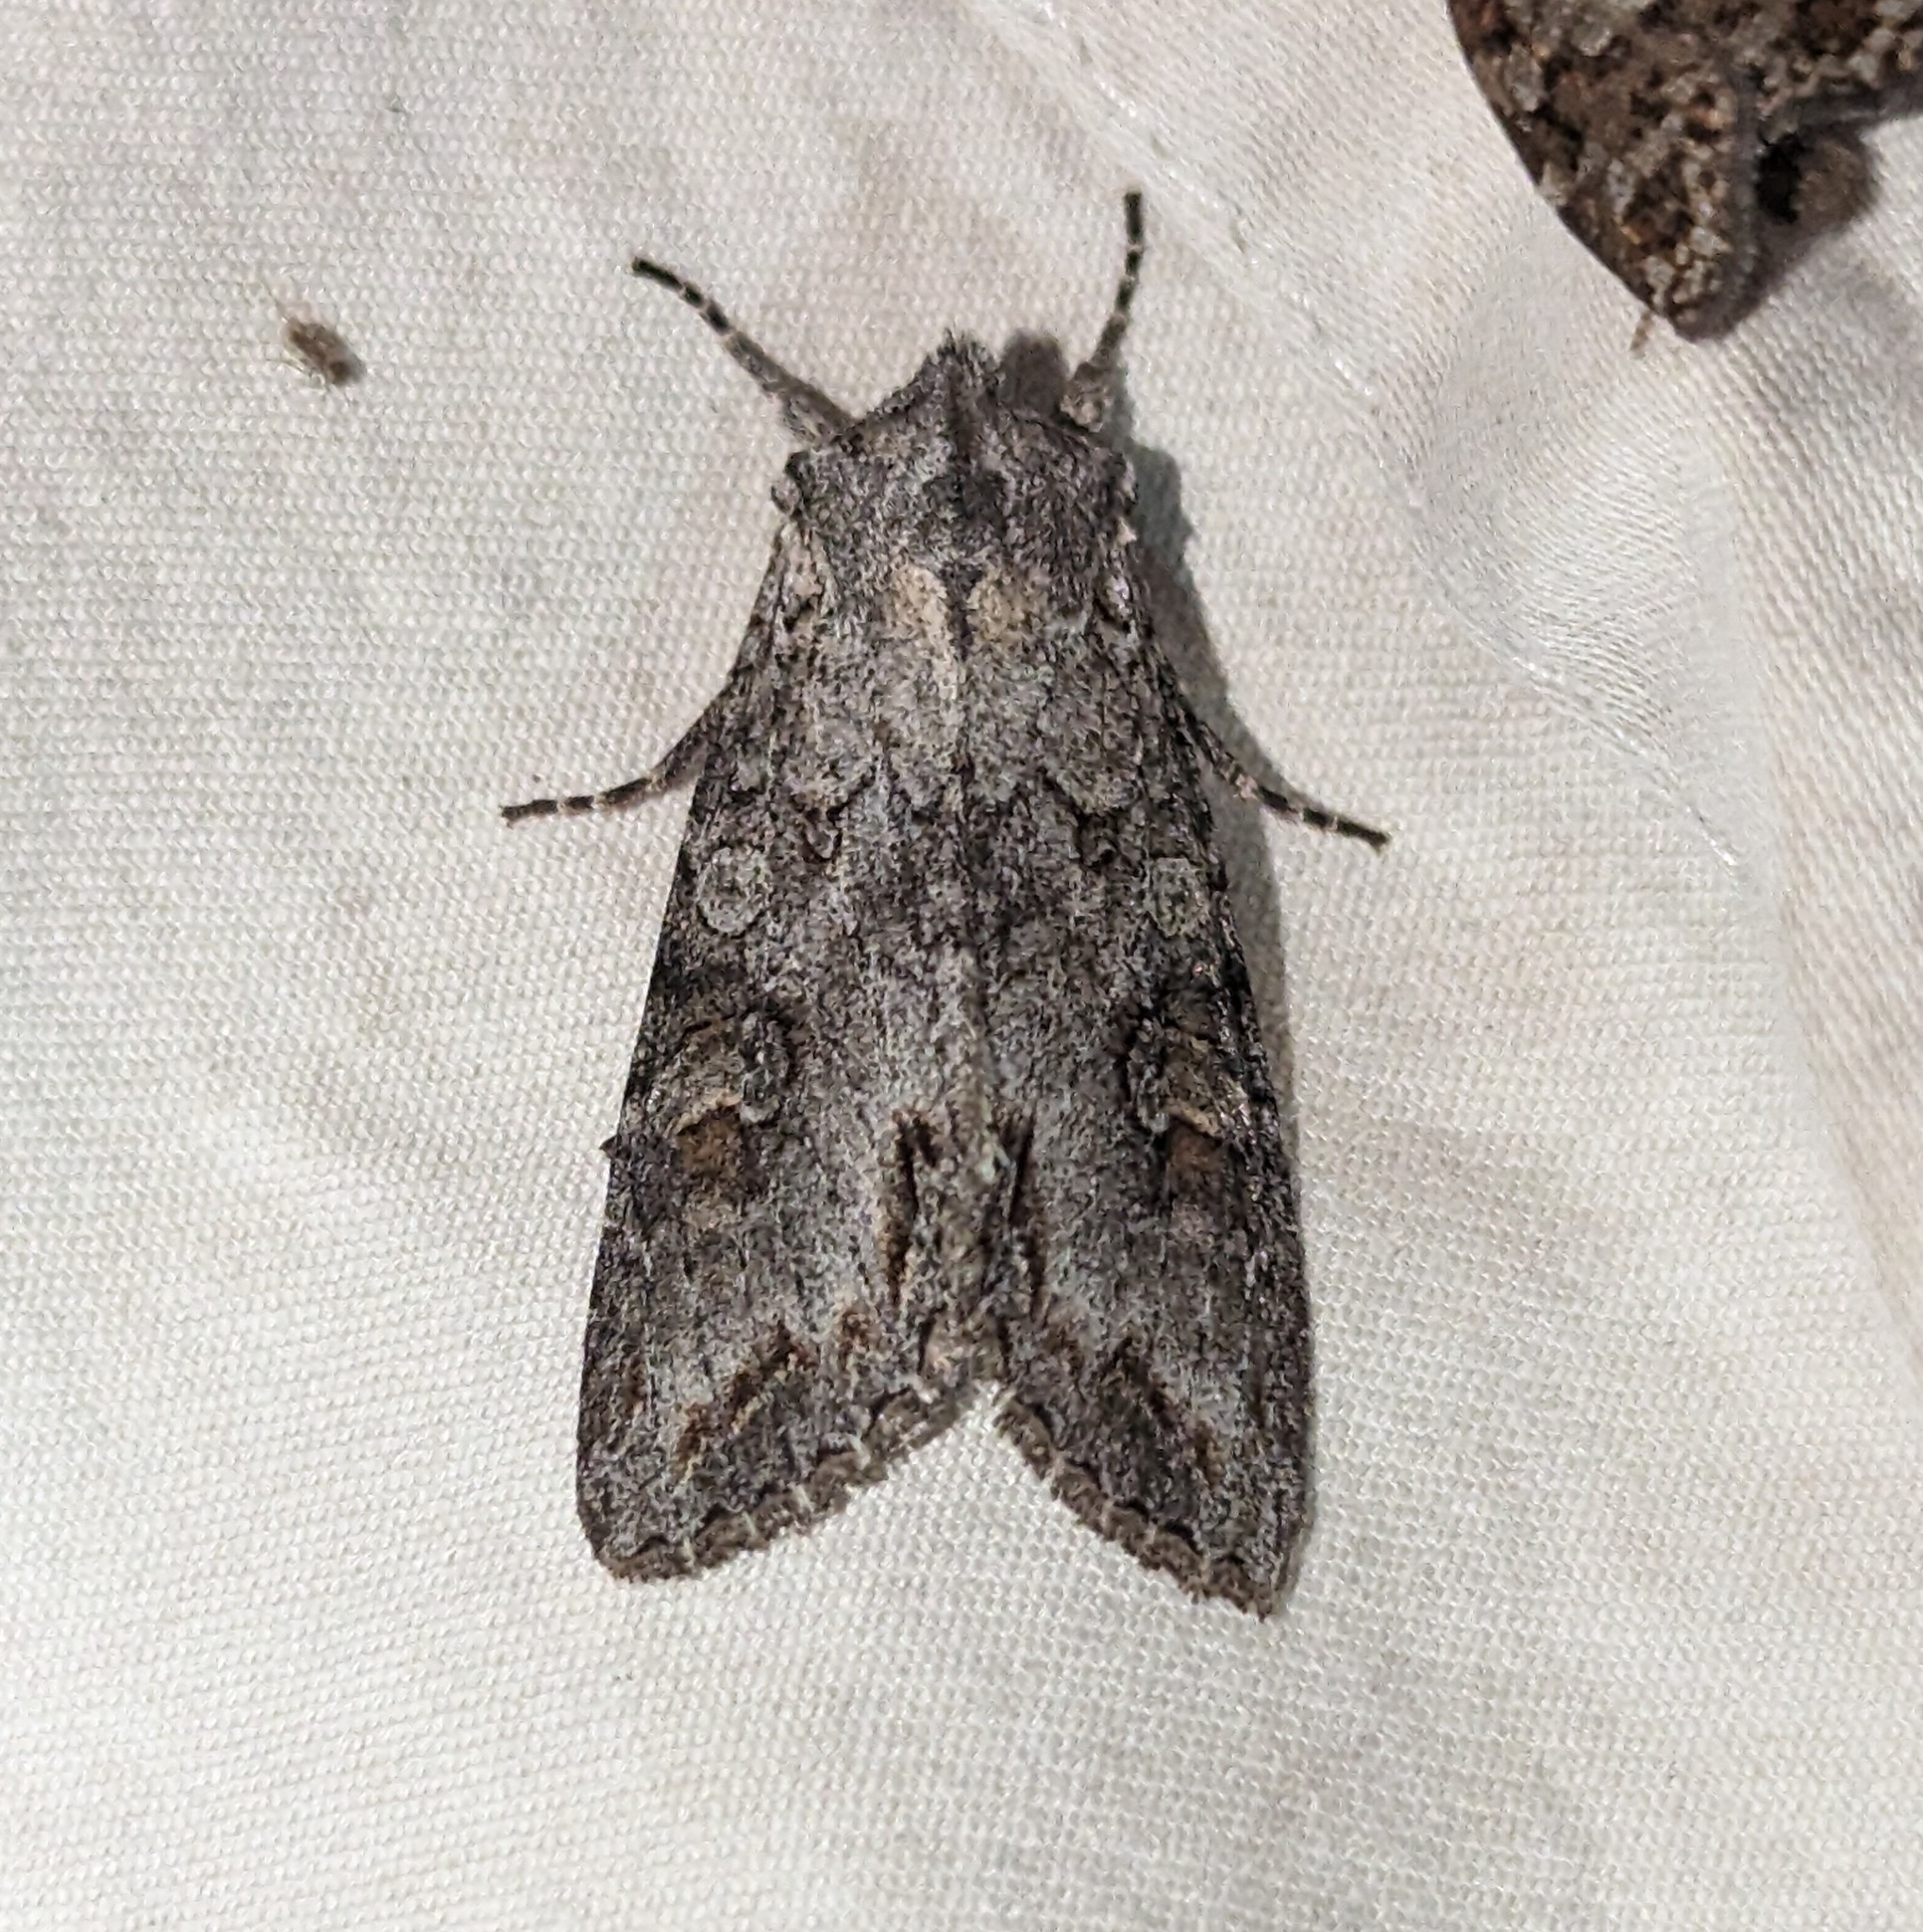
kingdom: Animalia
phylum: Arthropoda
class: Insecta
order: Lepidoptera
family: Noctuidae
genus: Polia
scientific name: Polia purpurissata
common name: Purple arches moth
